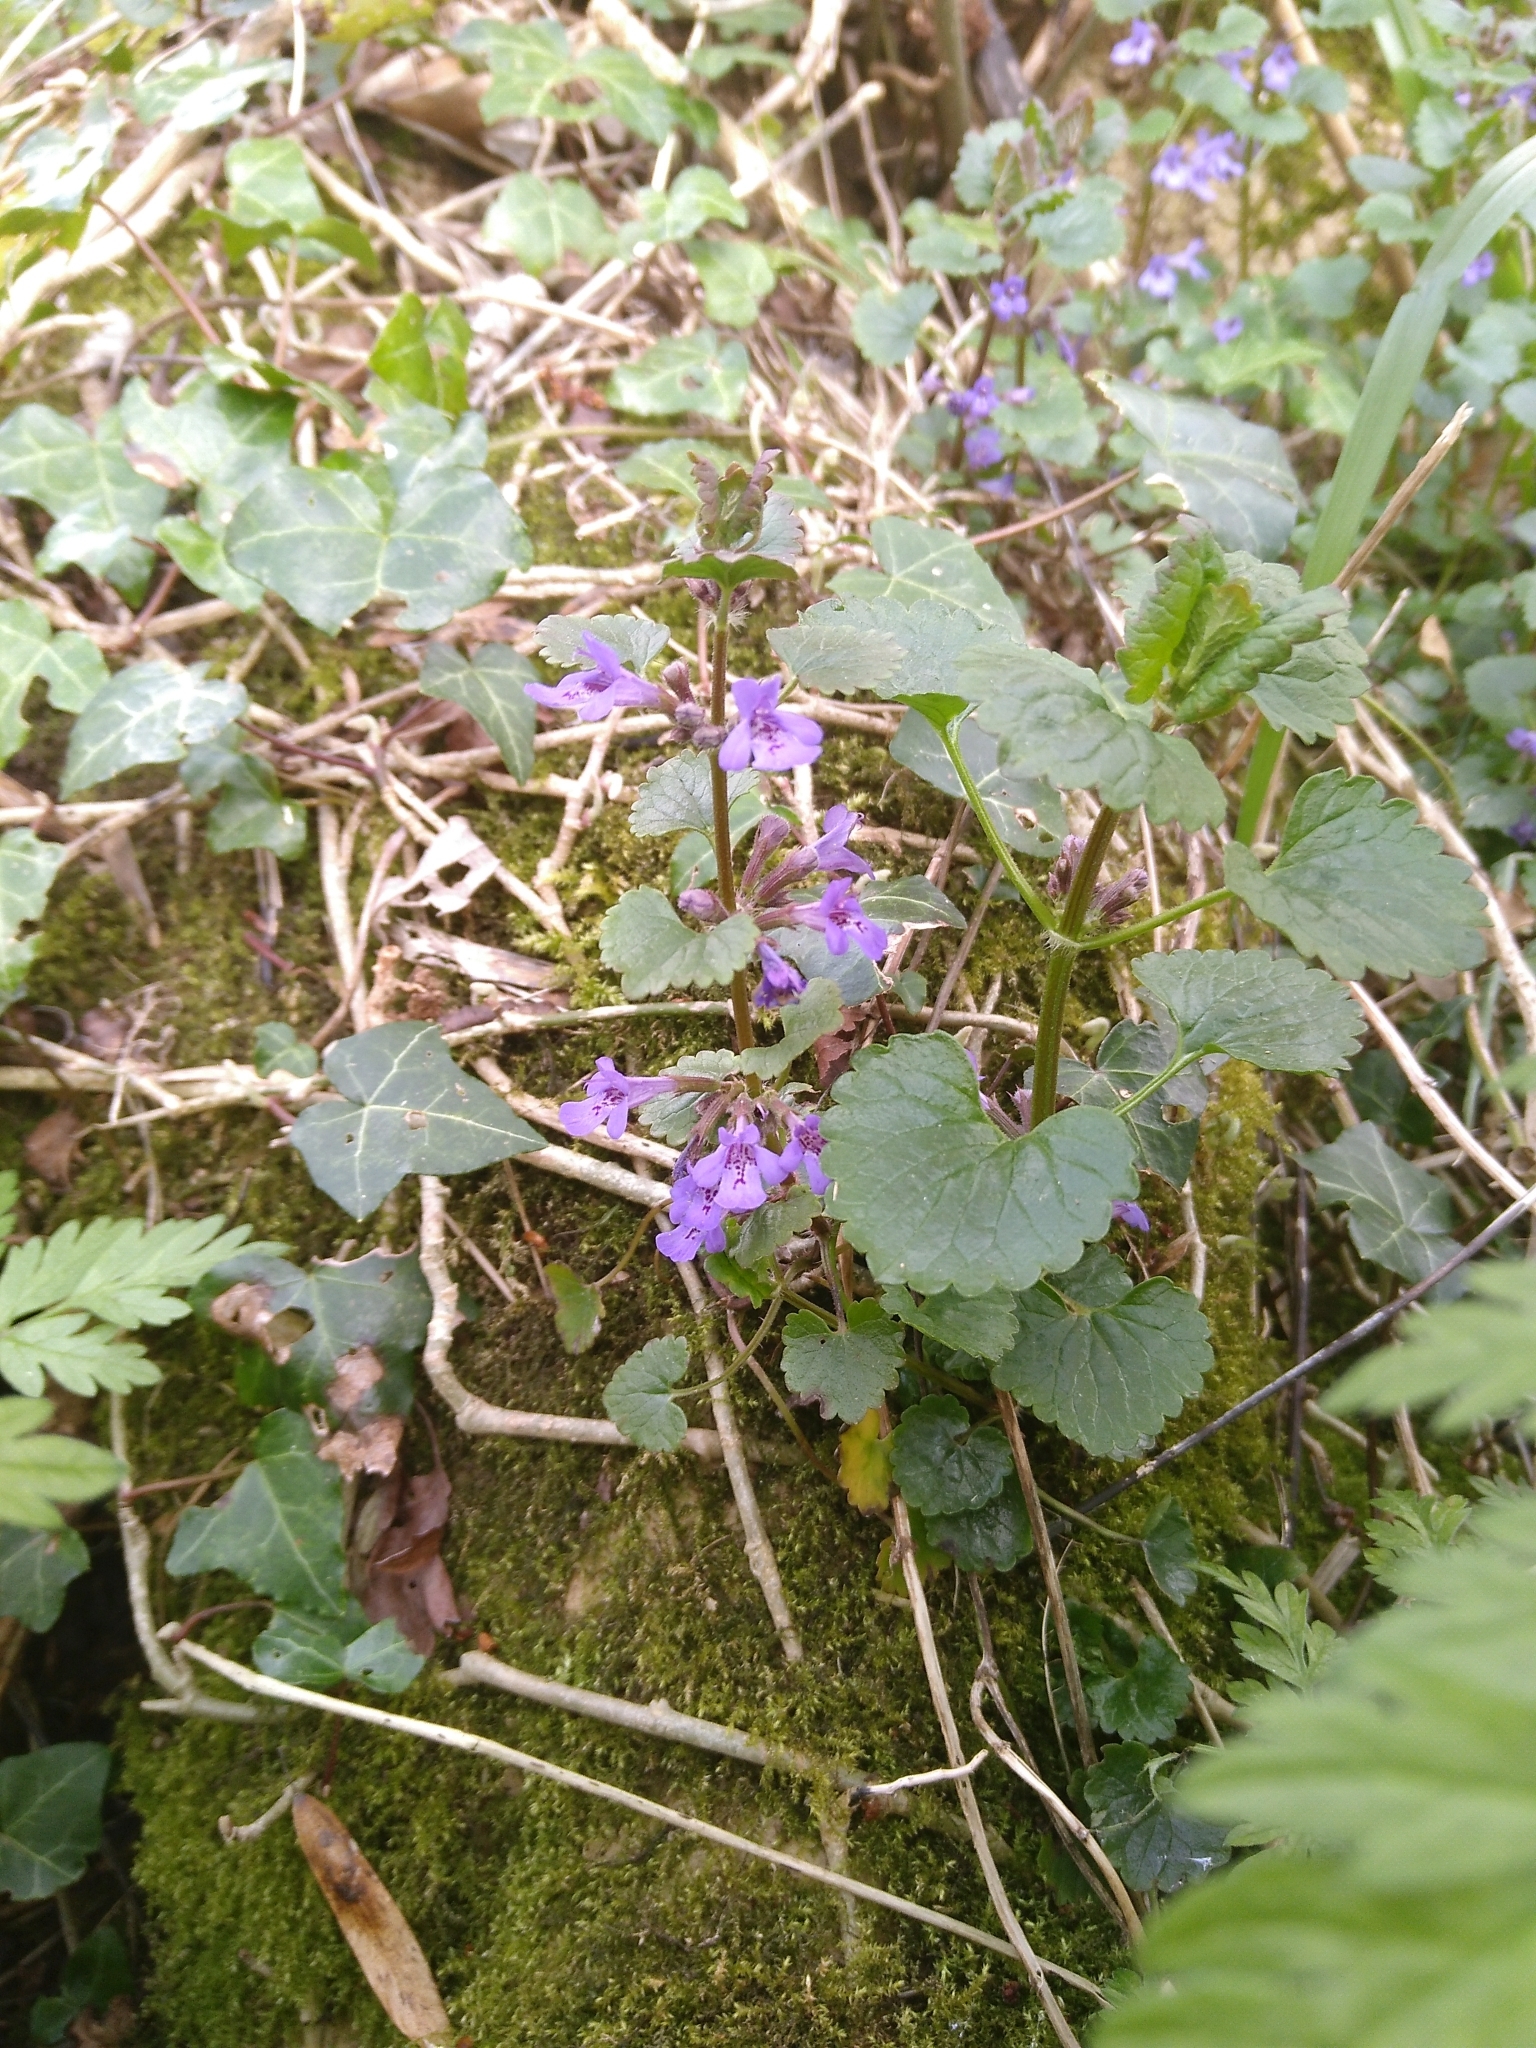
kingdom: Plantae
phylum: Tracheophyta
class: Magnoliopsida
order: Lamiales
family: Lamiaceae
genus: Glechoma
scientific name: Glechoma hederacea
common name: Ground ivy
